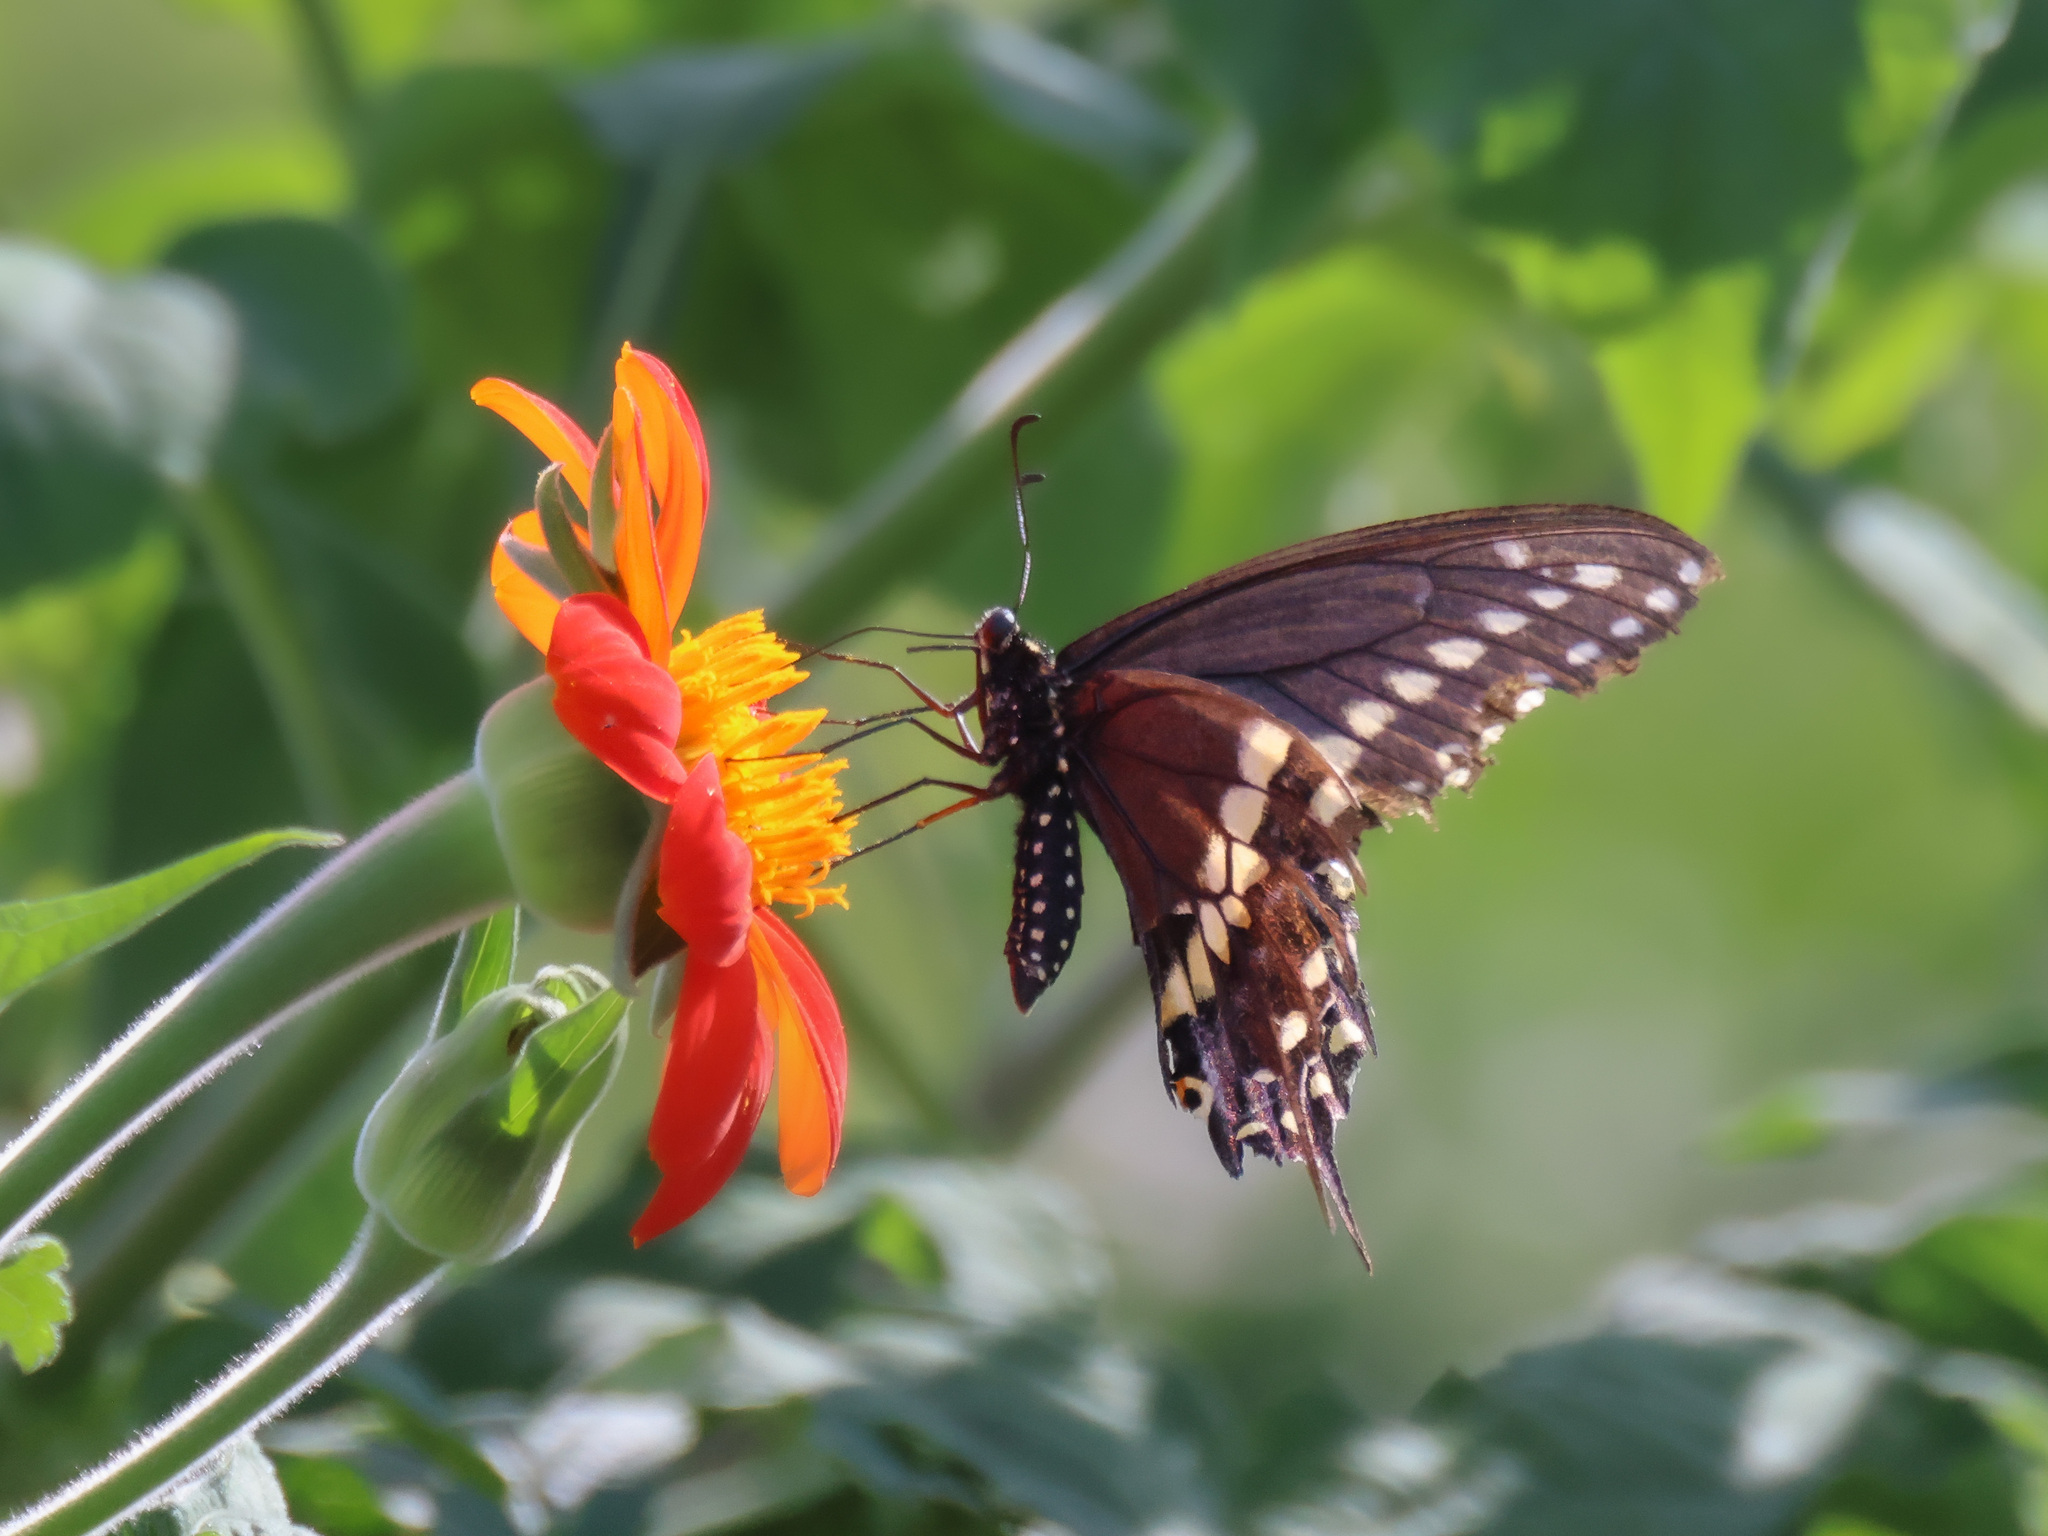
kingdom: Animalia
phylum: Arthropoda
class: Insecta
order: Lepidoptera
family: Papilionidae
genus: Papilio
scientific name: Papilio polyxenes
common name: Black swallowtail
